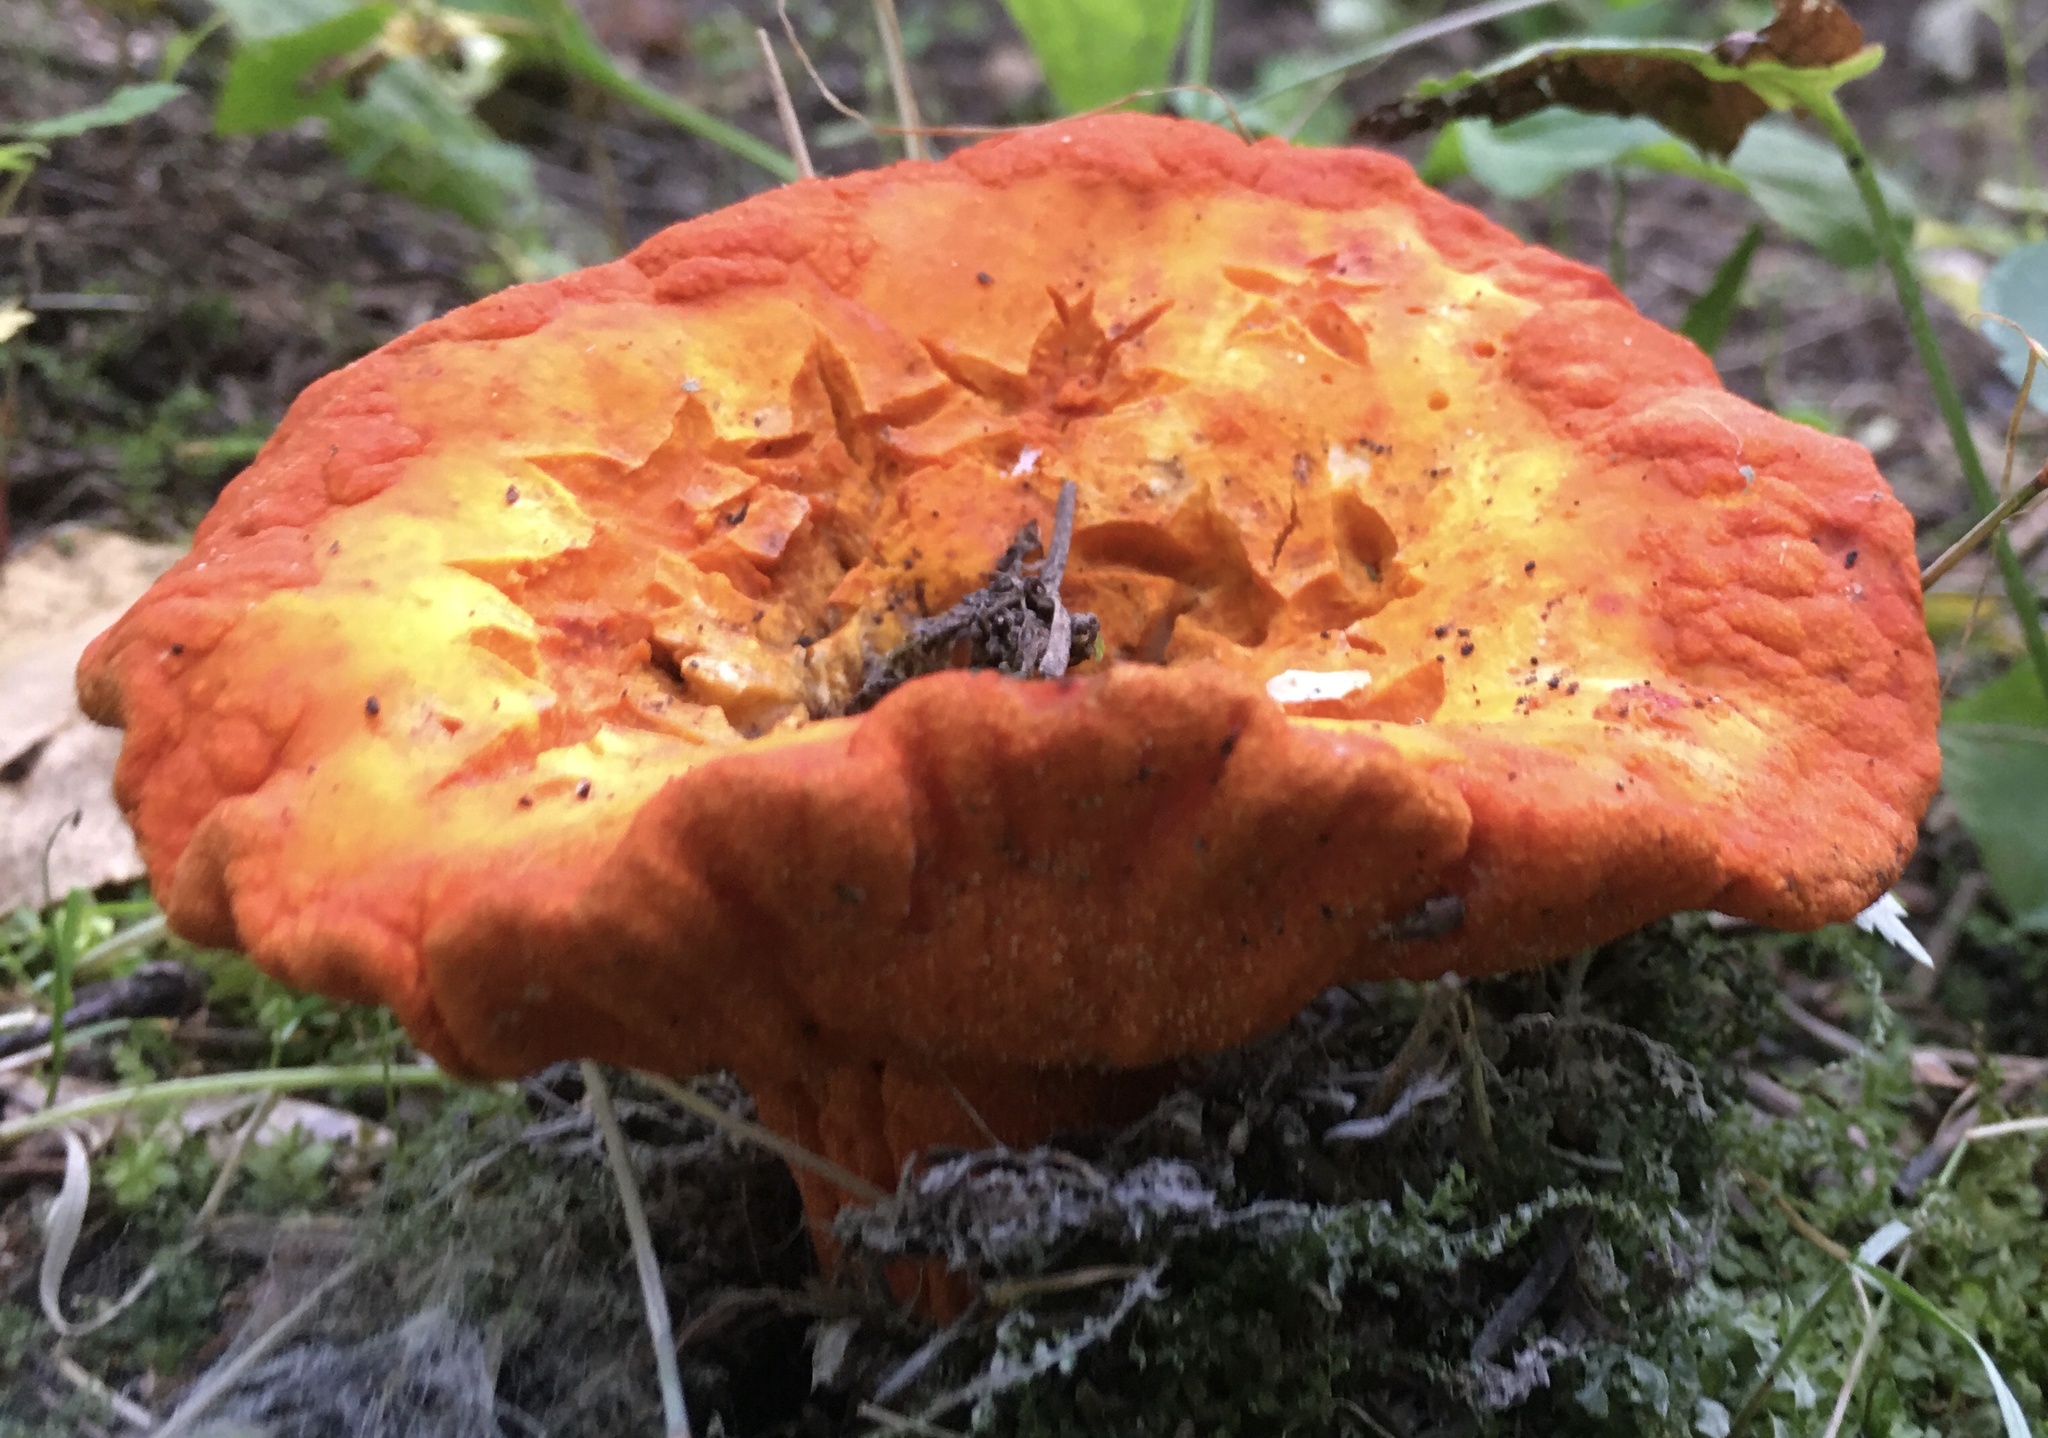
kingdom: Fungi
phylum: Ascomycota
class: Sordariomycetes
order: Hypocreales
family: Hypocreaceae
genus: Hypomyces
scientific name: Hypomyces lactifluorum
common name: Lobster mushroom
